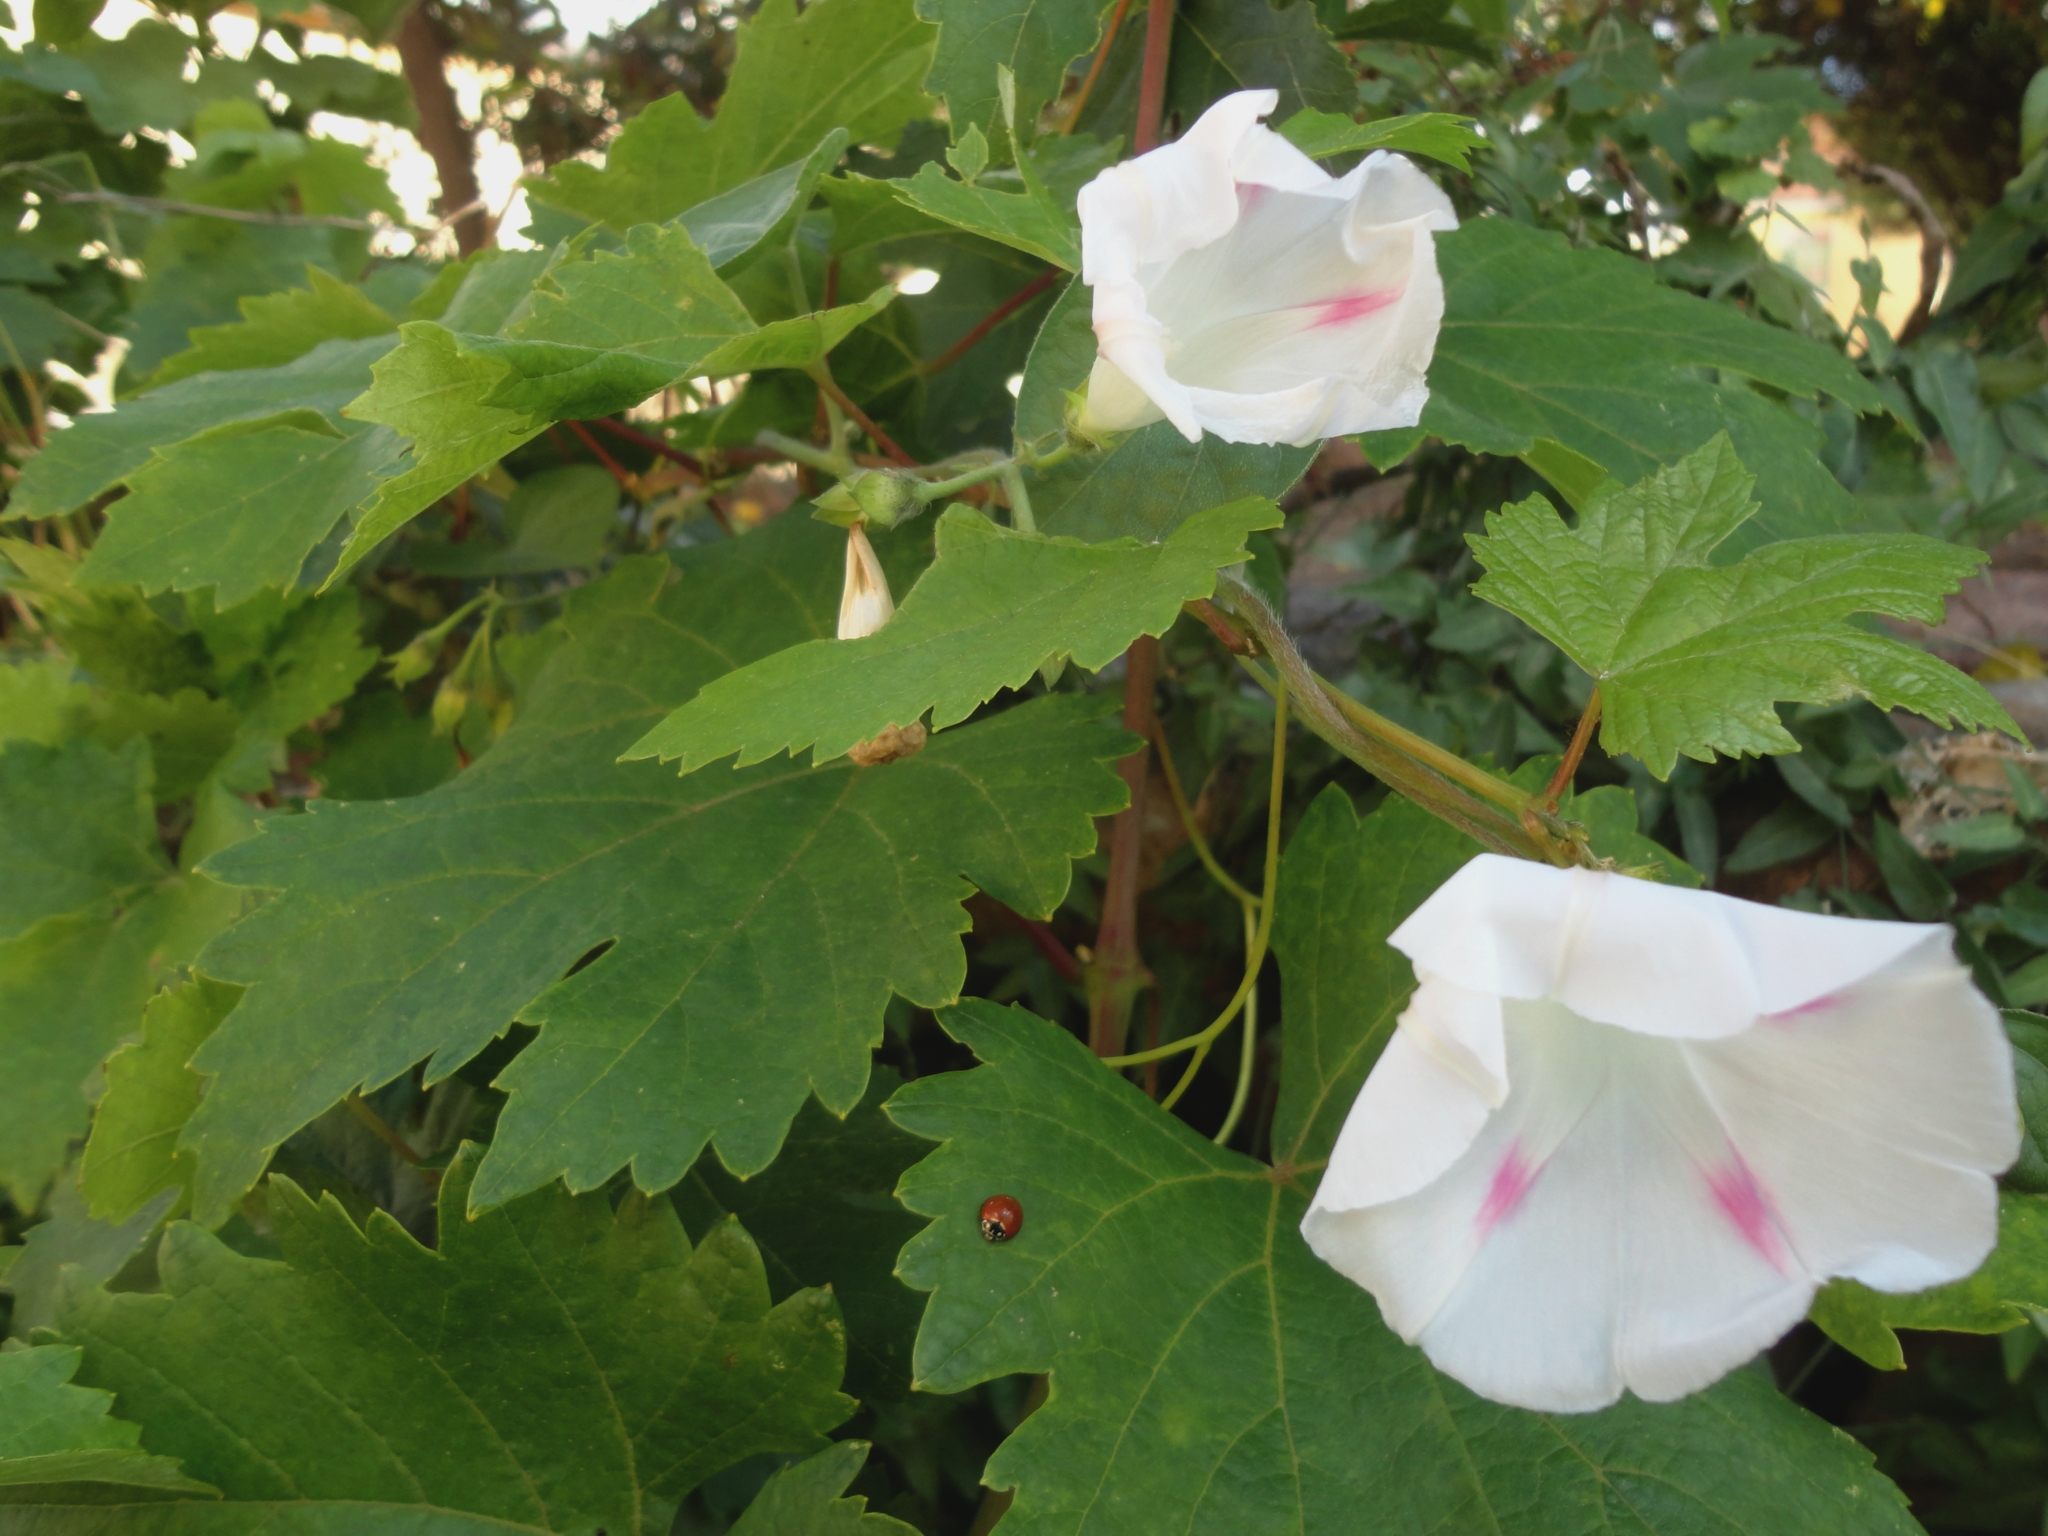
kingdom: Plantae
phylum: Tracheophyta
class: Magnoliopsida
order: Solanales
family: Convolvulaceae
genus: Ipomoea
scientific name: Ipomoea purpurea
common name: Common morning-glory
